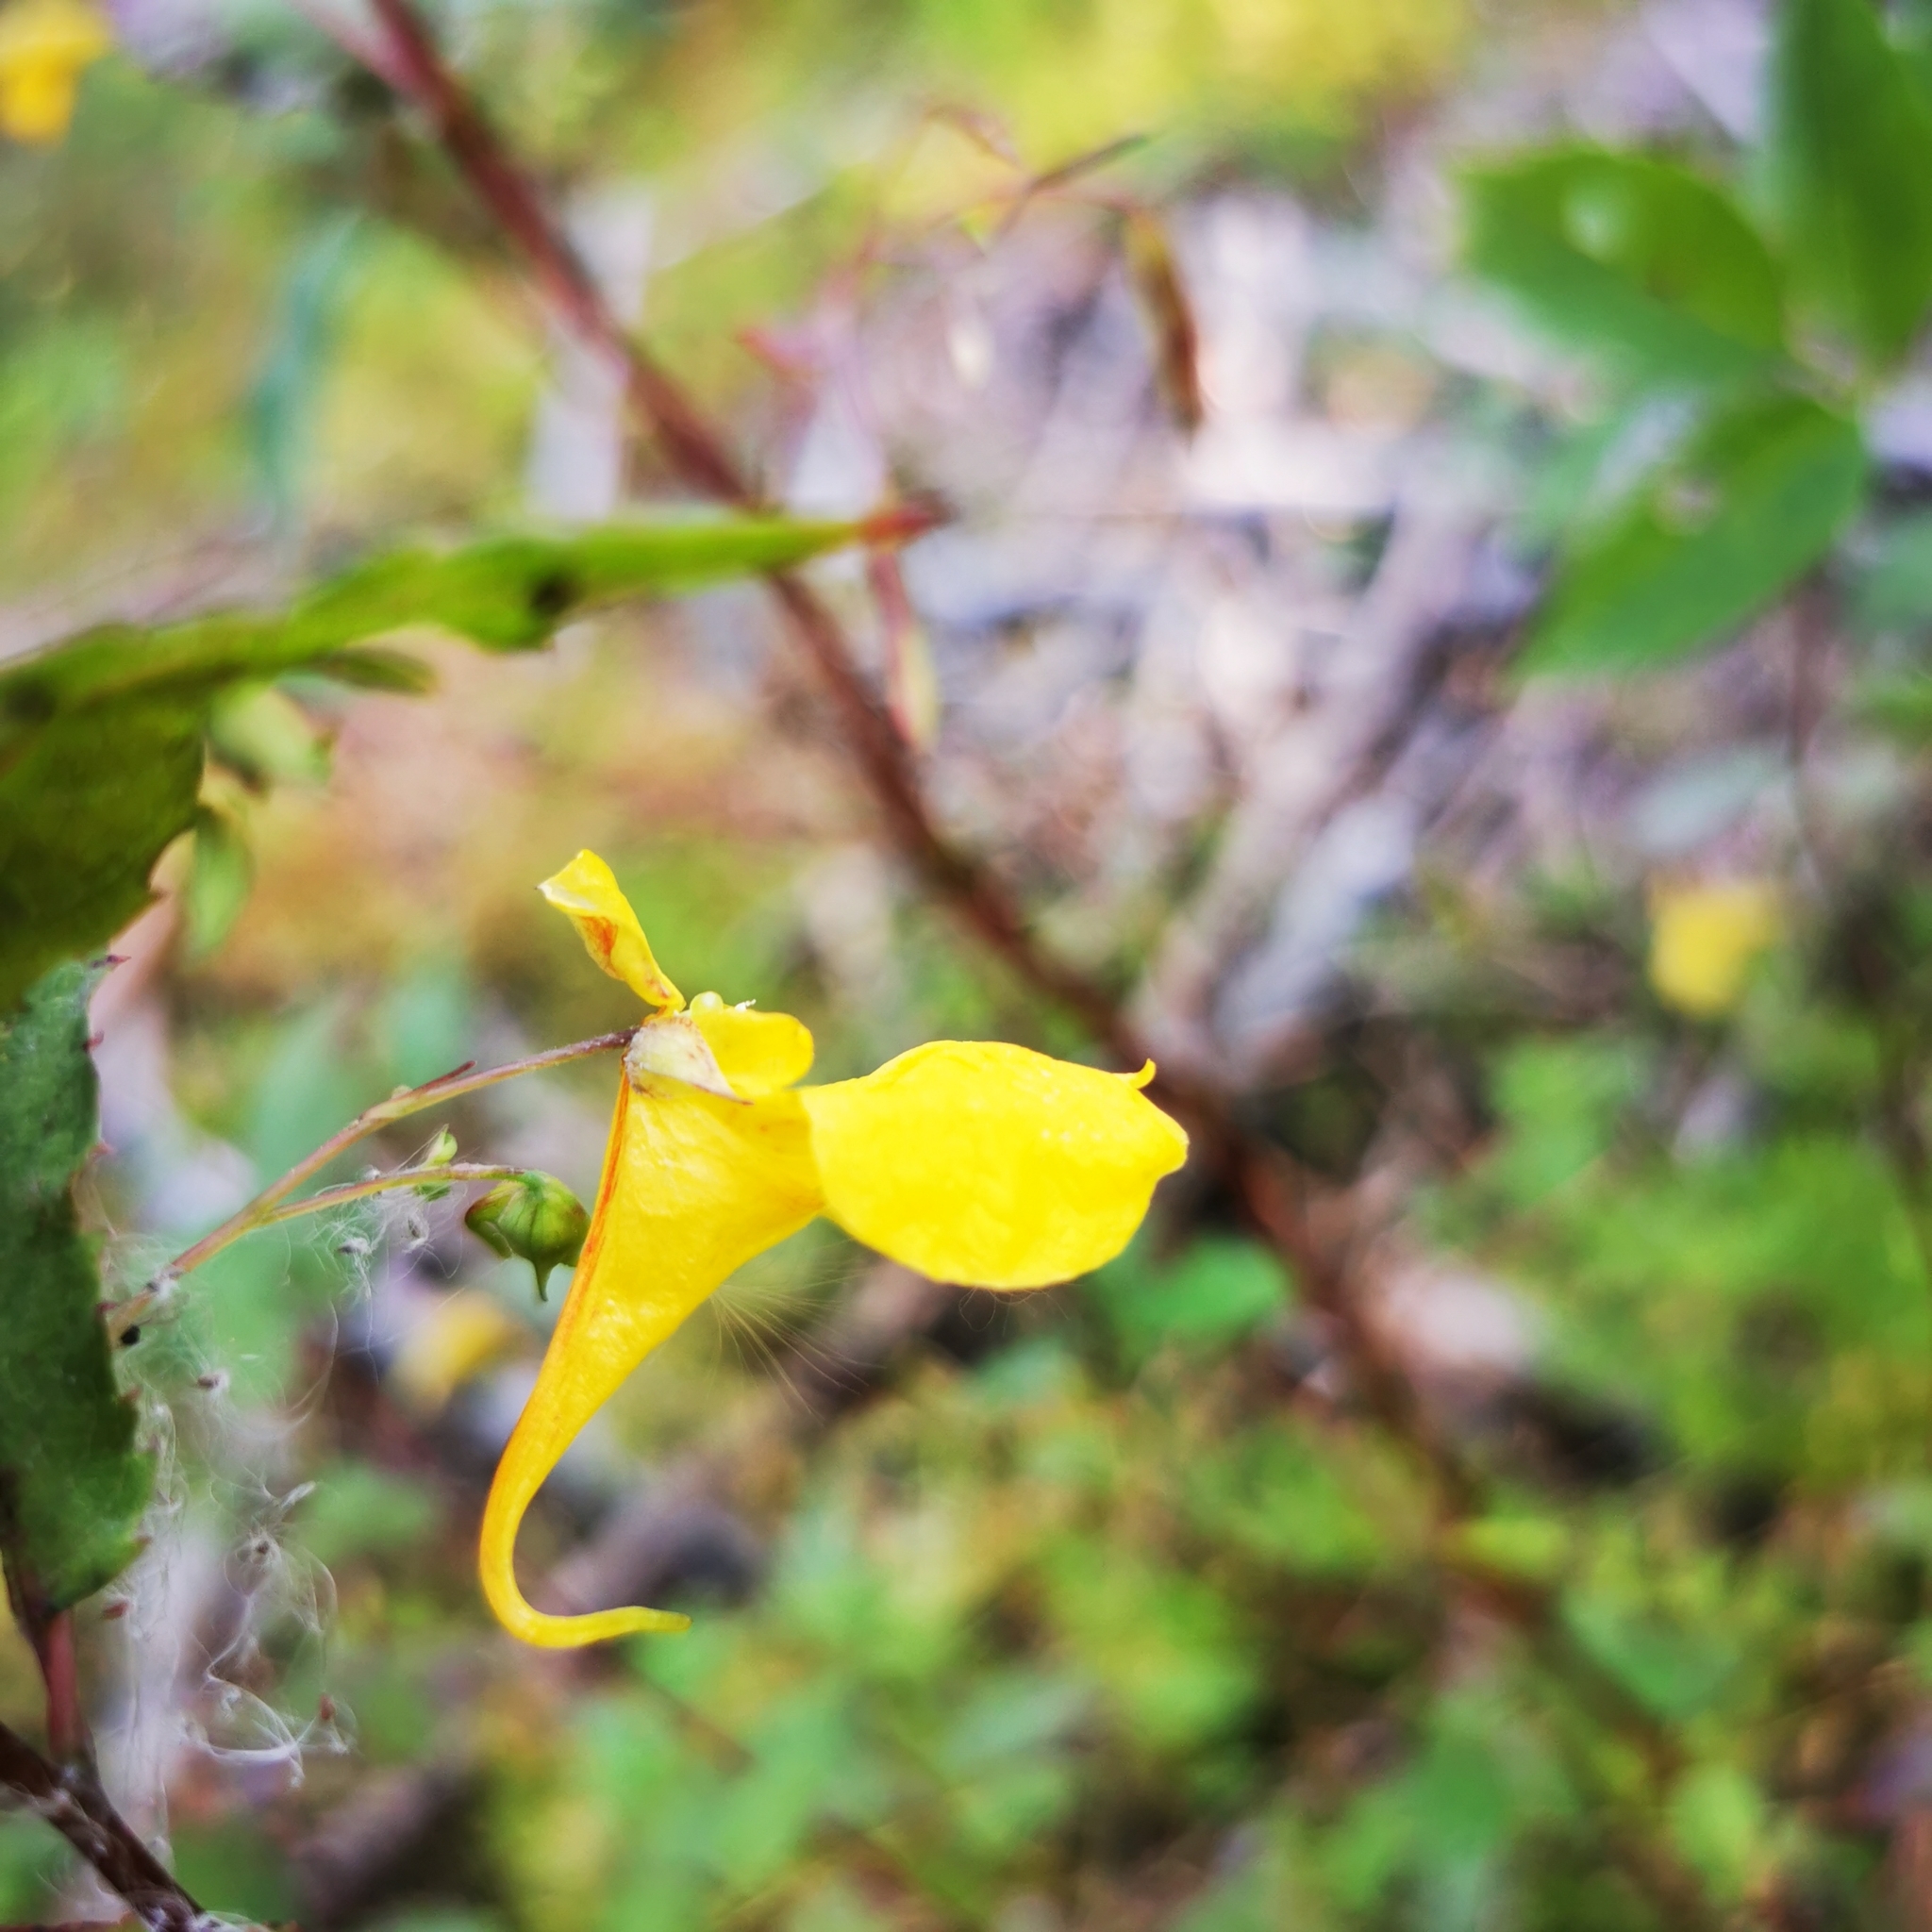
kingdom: Plantae
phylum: Tracheophyta
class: Magnoliopsida
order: Ericales
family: Balsaminaceae
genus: Impatiens
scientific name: Impatiens noli-tangere
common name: Touch-me-not balsam
